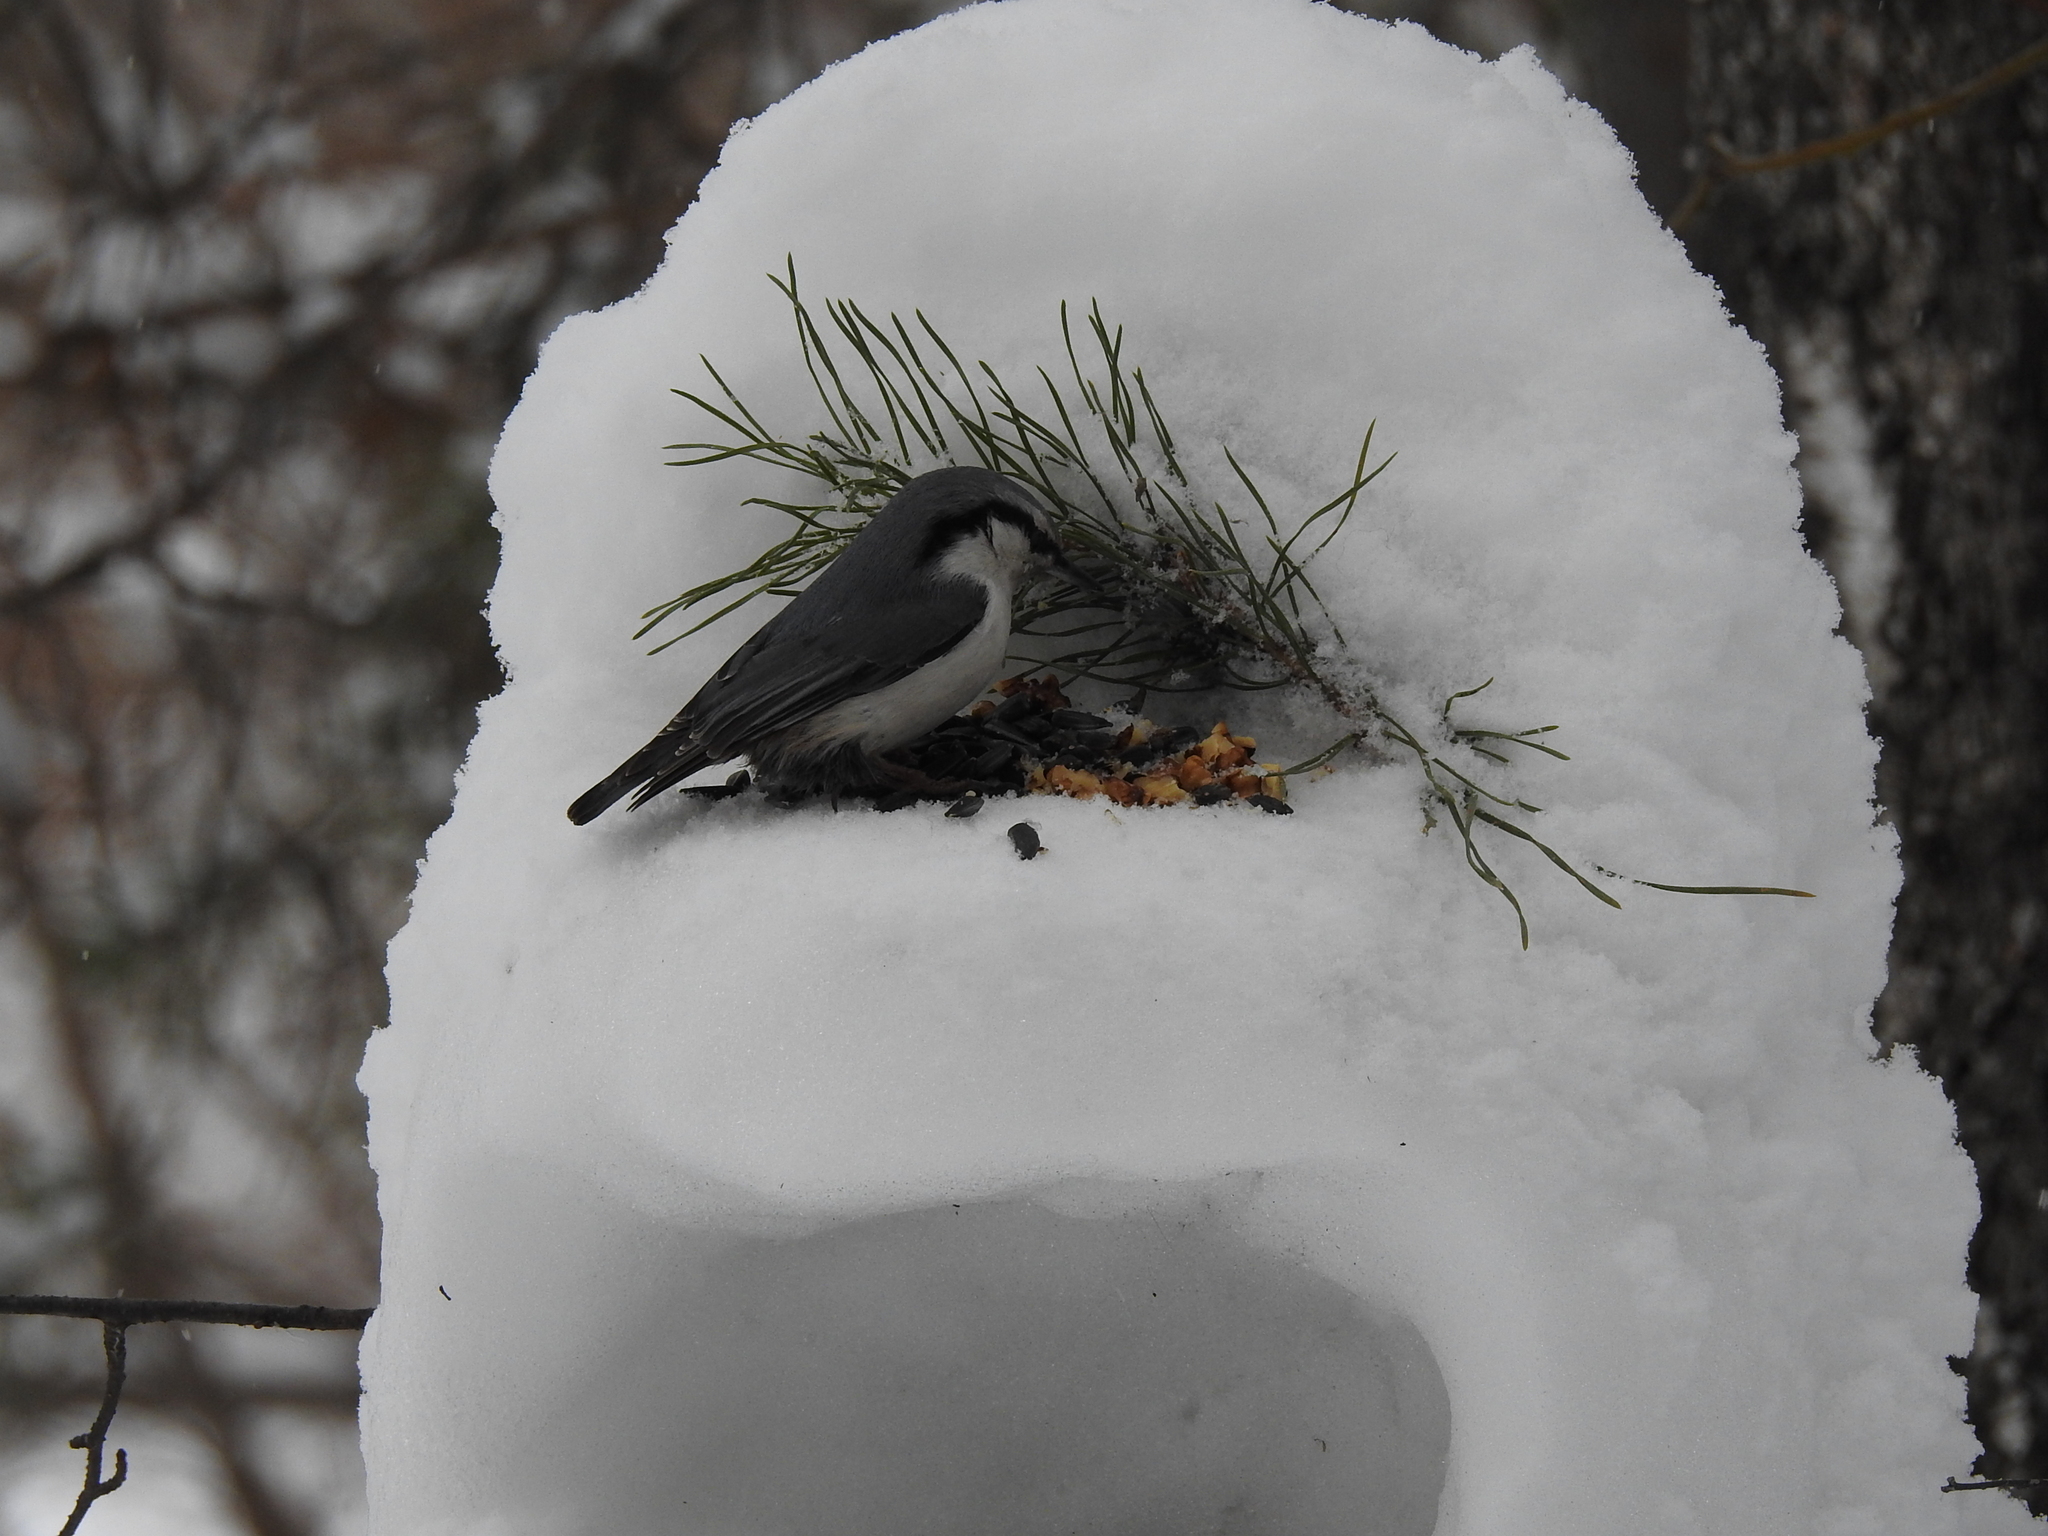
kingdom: Animalia
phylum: Chordata
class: Aves
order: Passeriformes
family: Sittidae
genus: Sitta
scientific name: Sitta europaea
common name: Eurasian nuthatch
